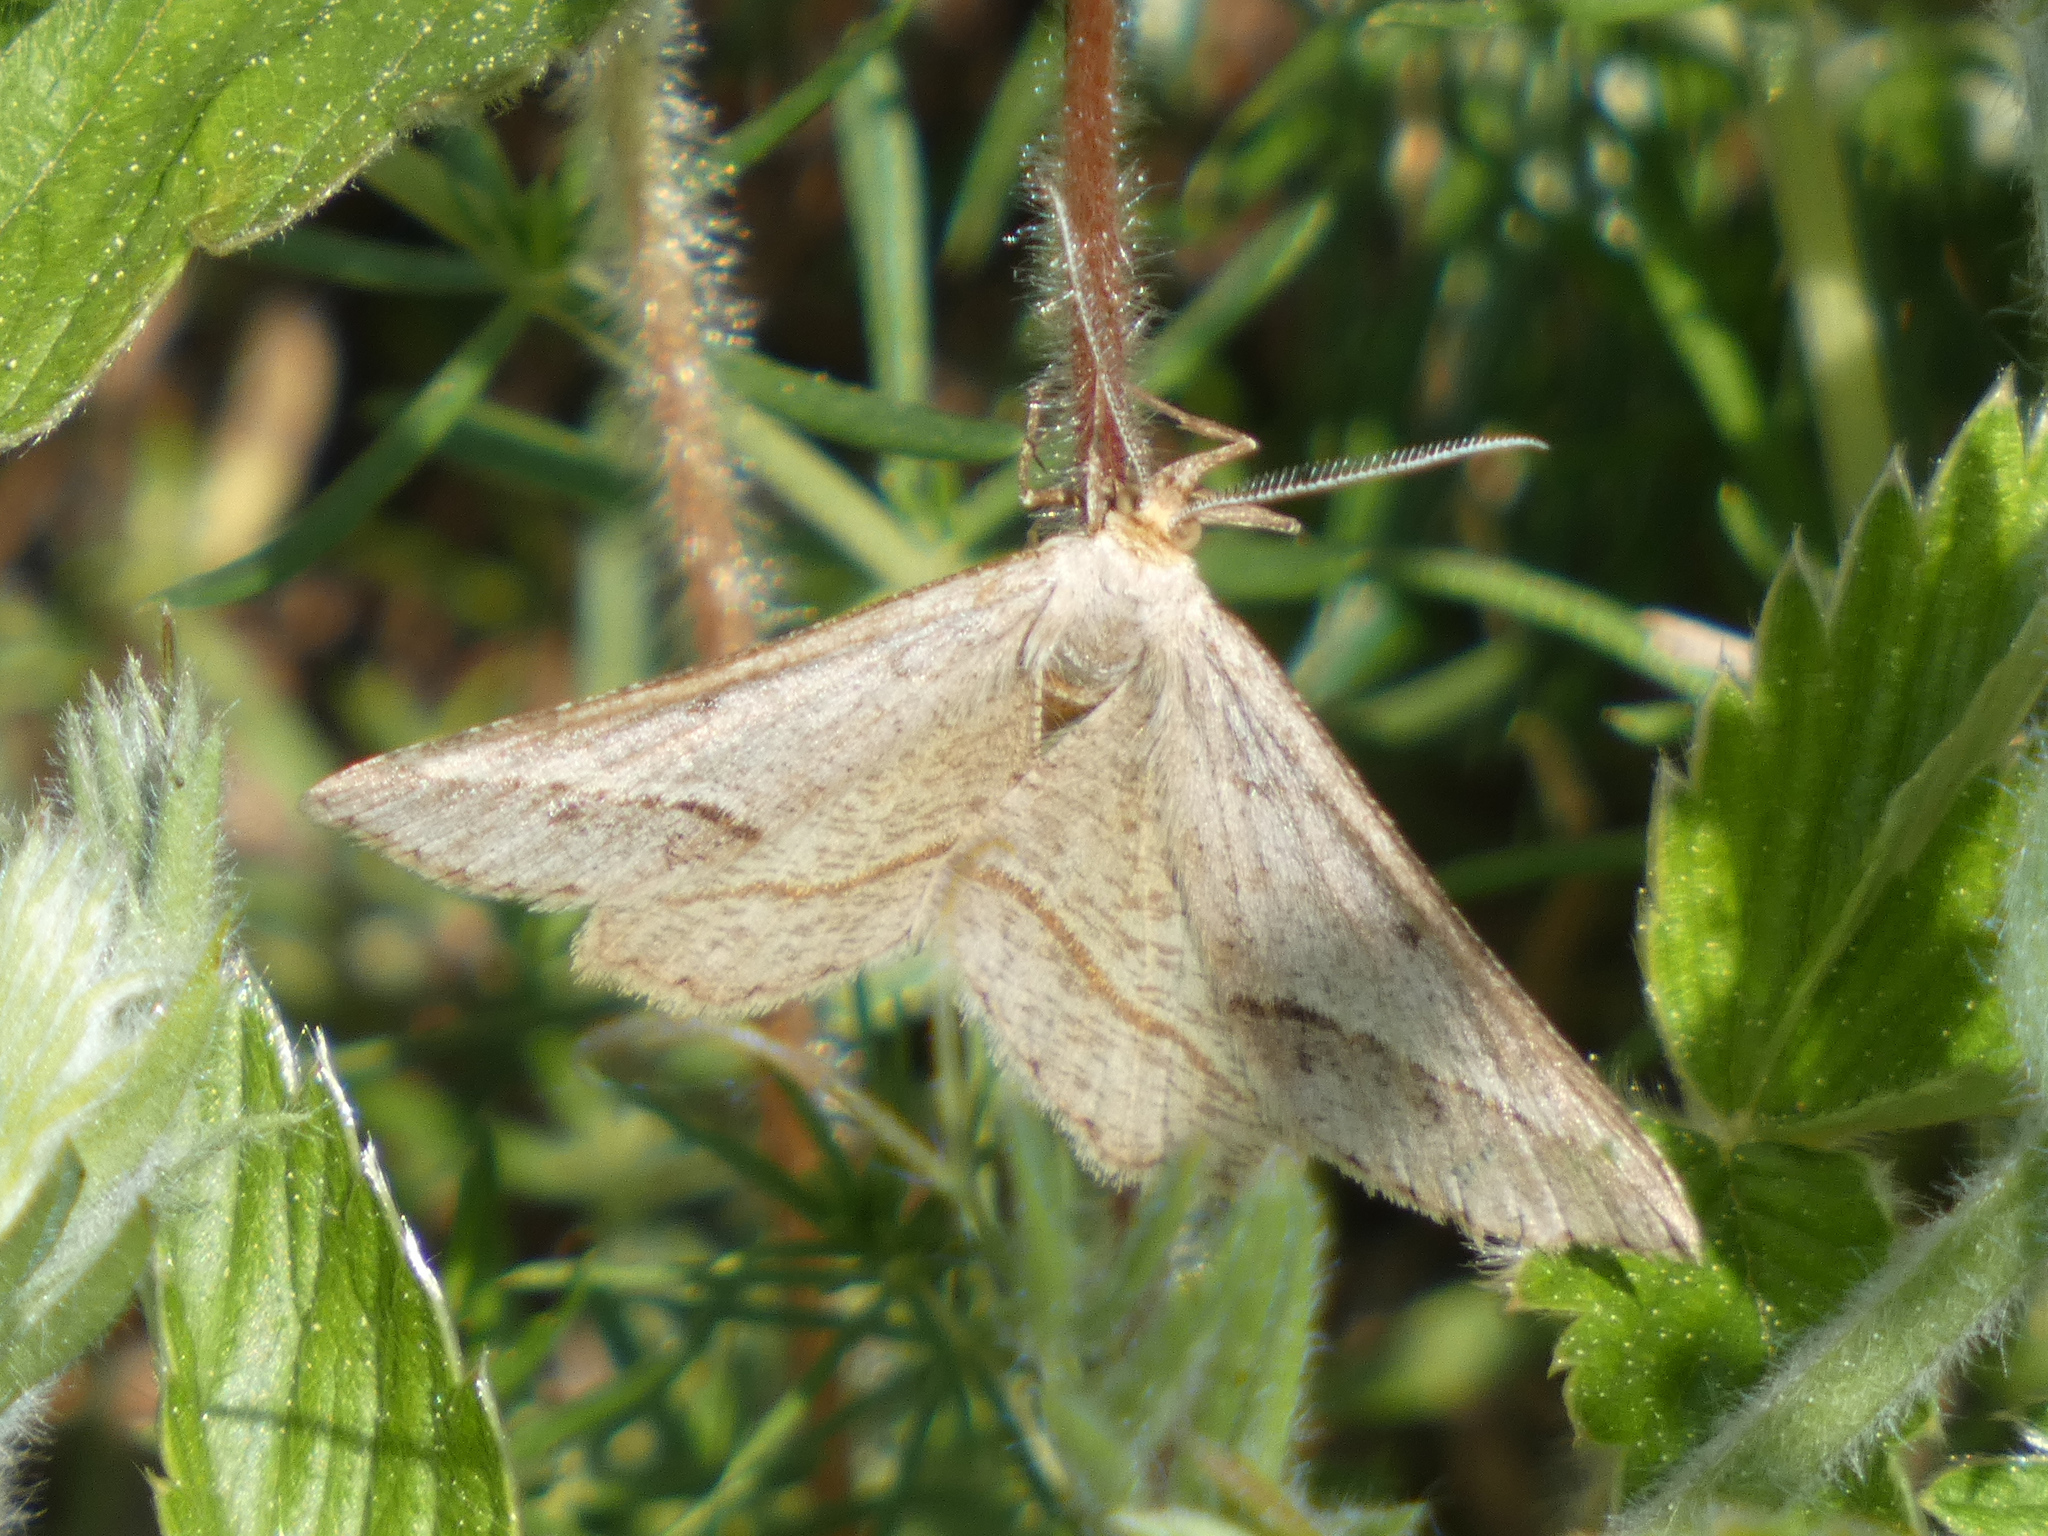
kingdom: Animalia
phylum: Arthropoda
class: Insecta
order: Lepidoptera
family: Geometridae
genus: Tephrina
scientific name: Tephrina arenacearia
